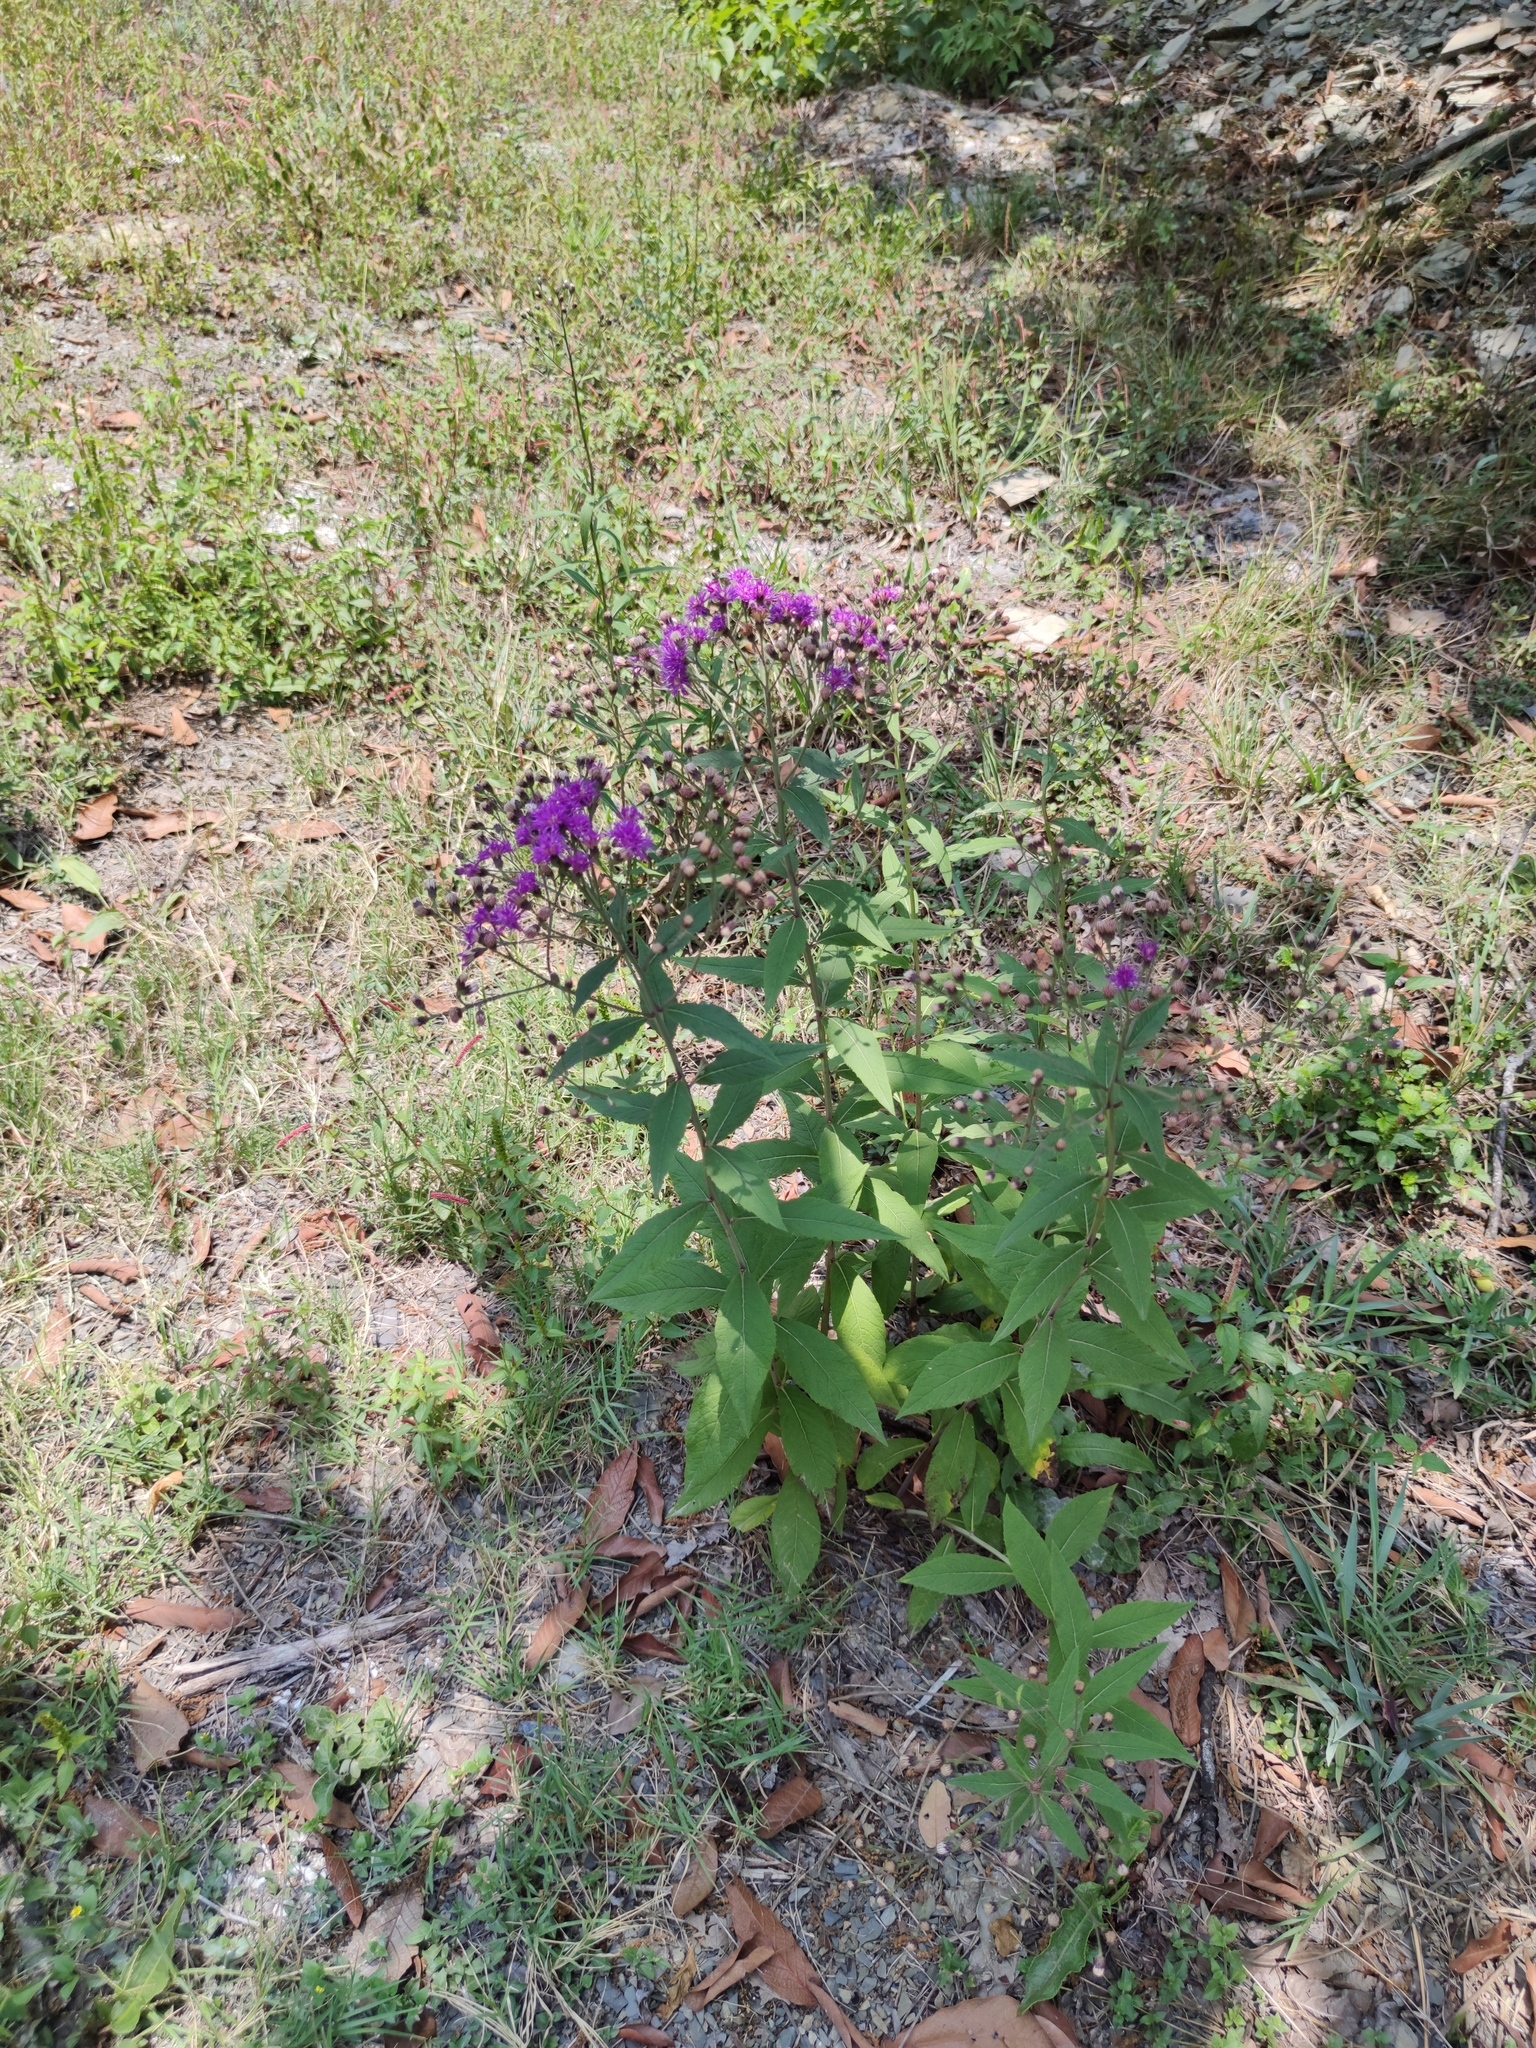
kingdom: Plantae
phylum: Tracheophyta
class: Magnoliopsida
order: Asterales
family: Asteraceae
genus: Vernonia
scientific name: Vernonia greggii
